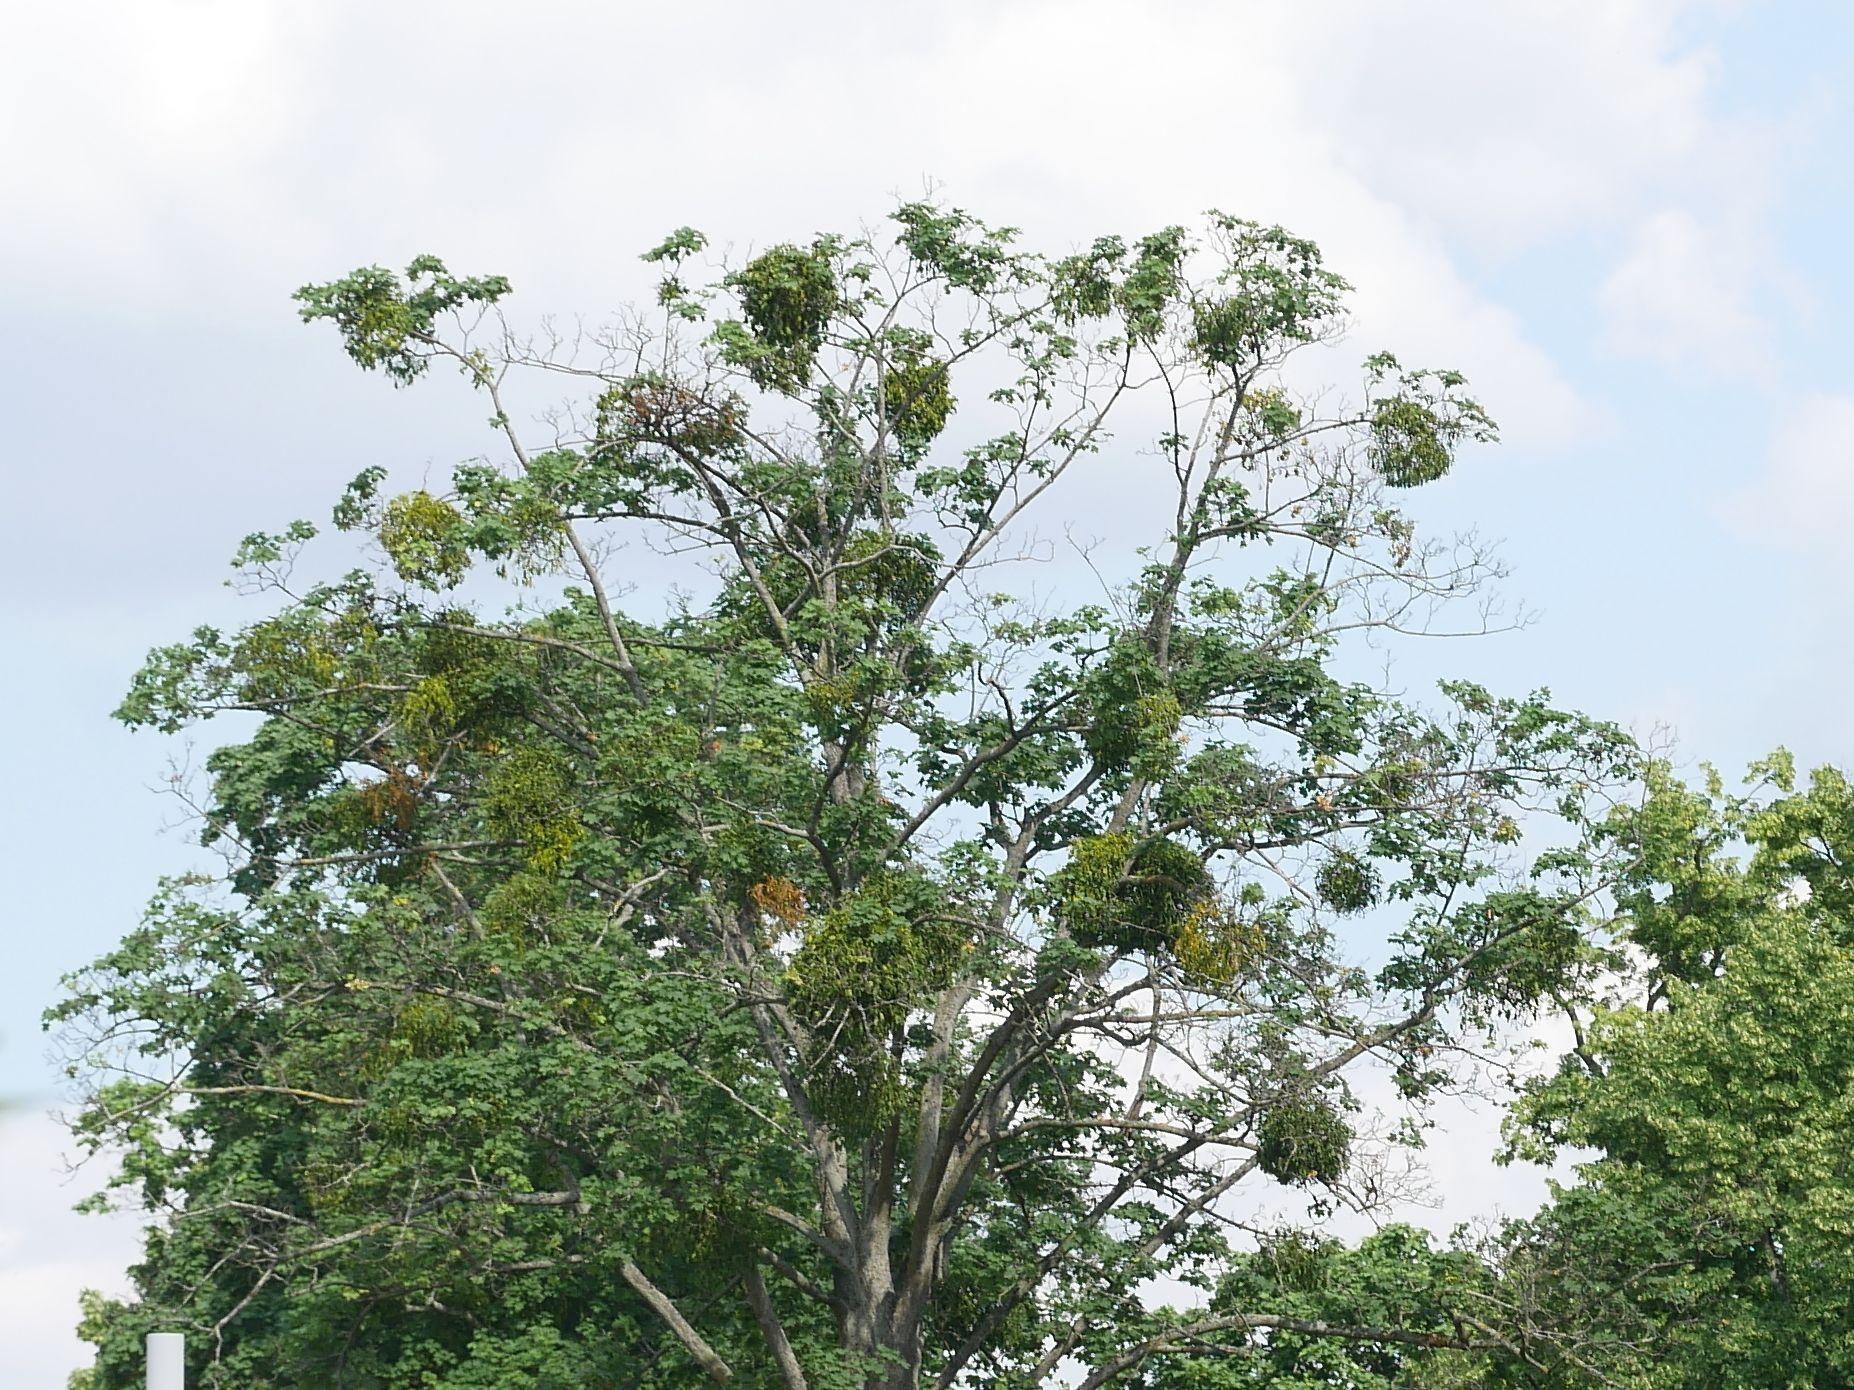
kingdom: Plantae
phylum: Tracheophyta
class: Magnoliopsida
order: Santalales
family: Viscaceae
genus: Viscum
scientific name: Viscum album
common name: Mistletoe
